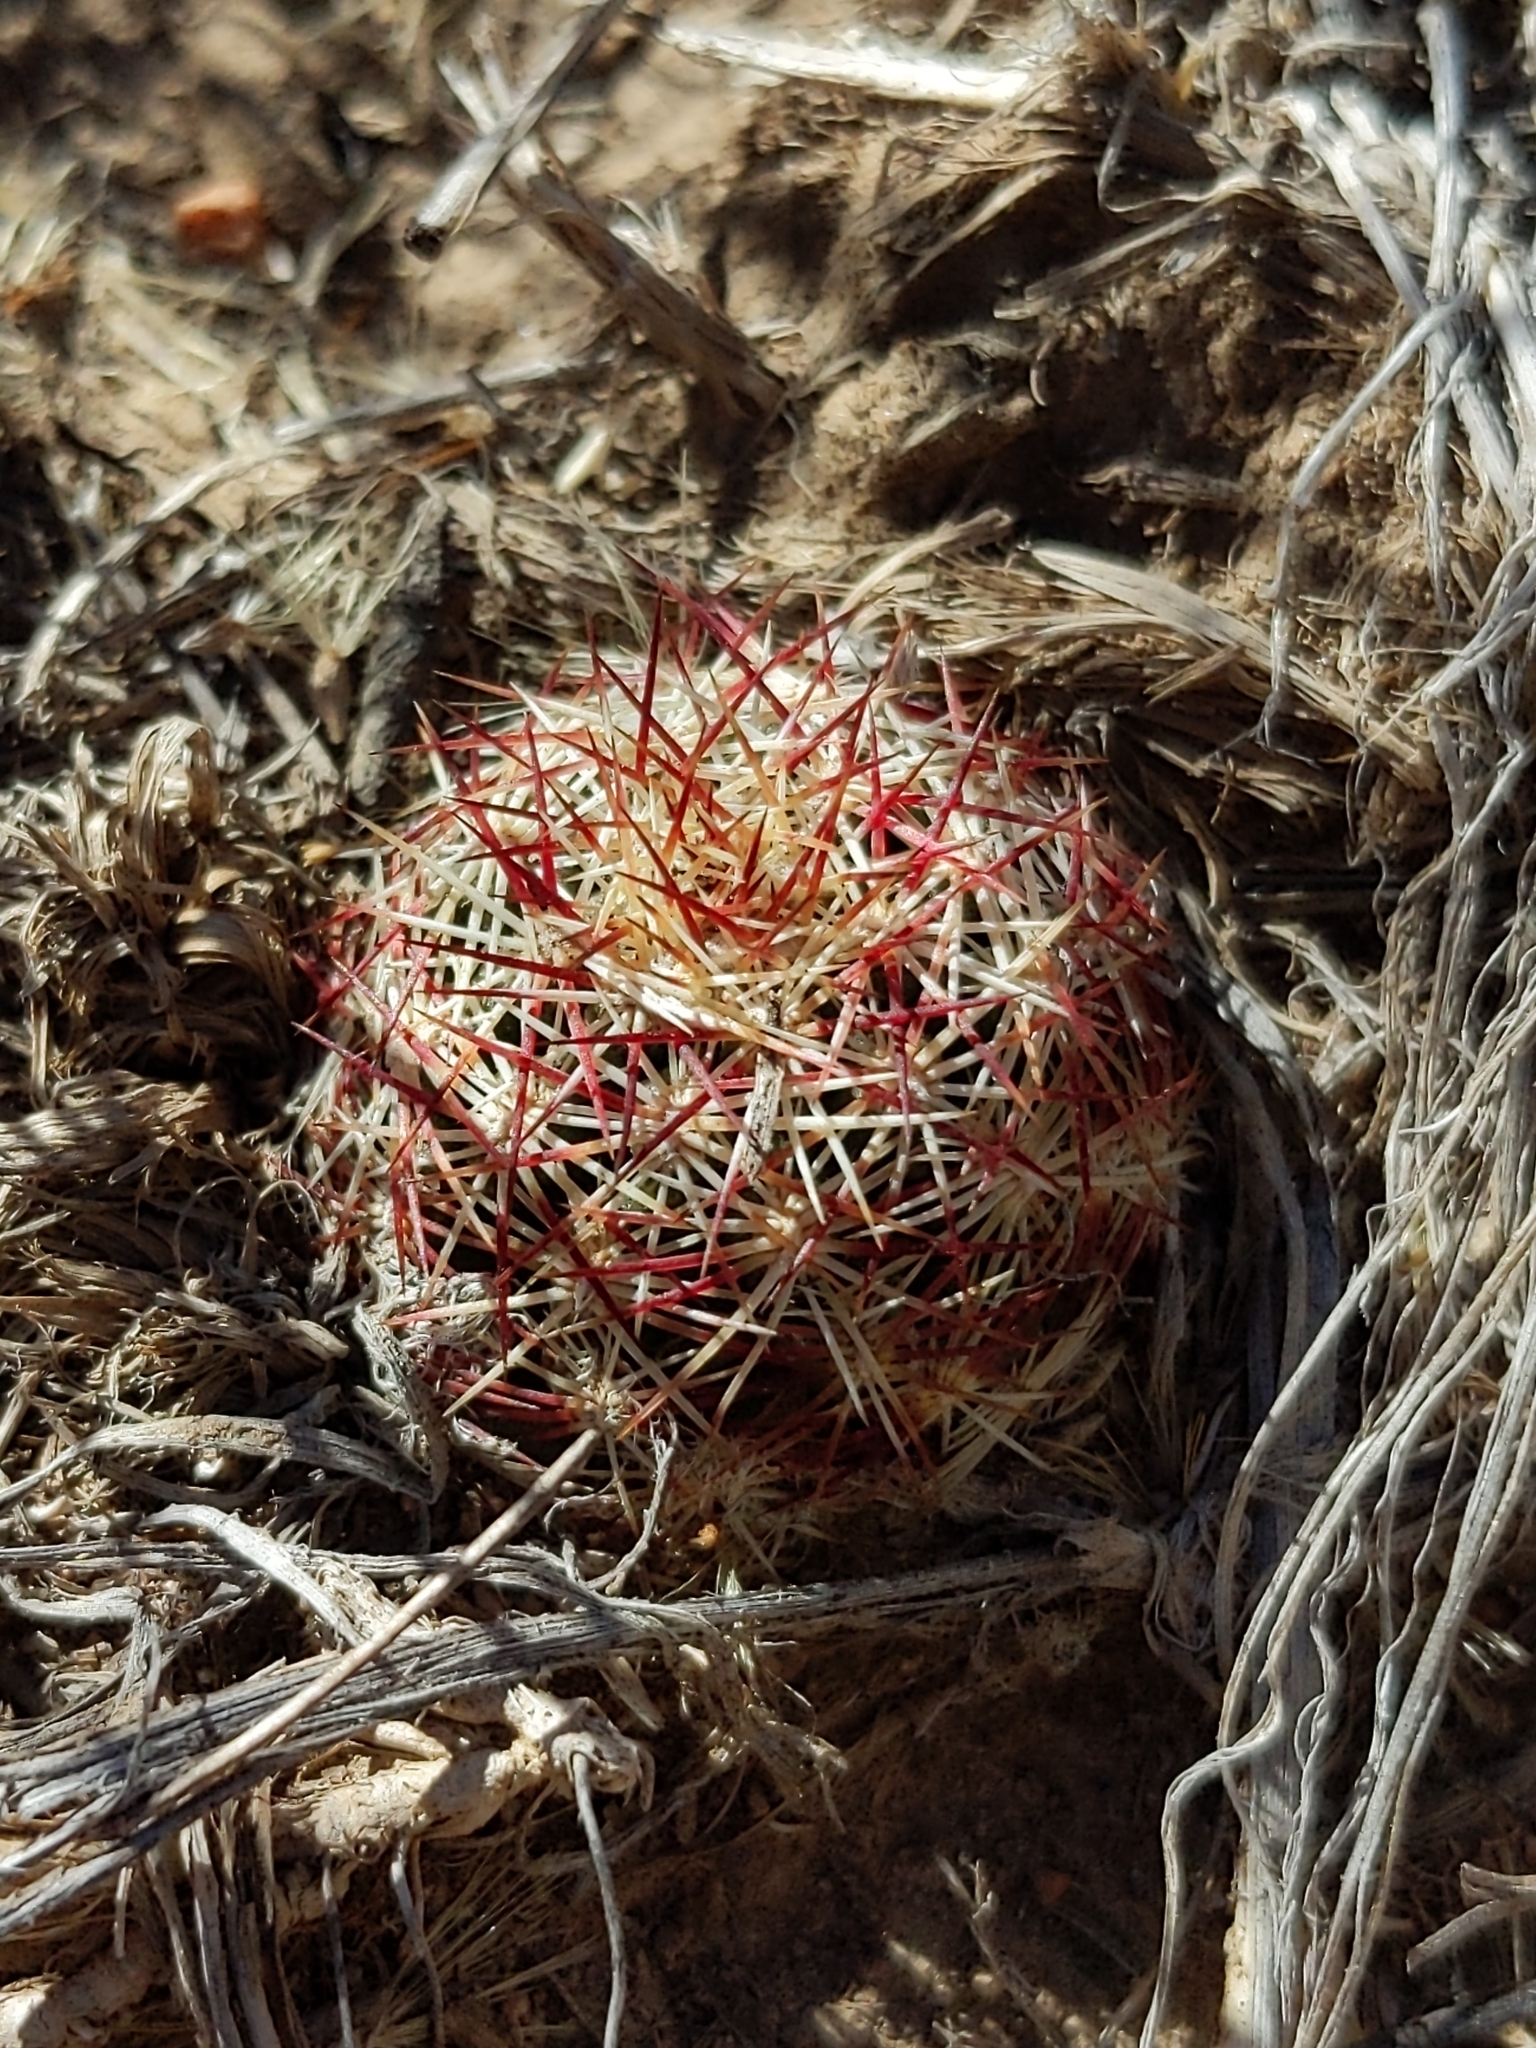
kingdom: Plantae
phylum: Tracheophyta
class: Magnoliopsida
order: Caryophyllales
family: Cactaceae
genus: Echinocereus
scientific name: Echinocereus viridiflorus
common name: Nylon hedgehog cactus
